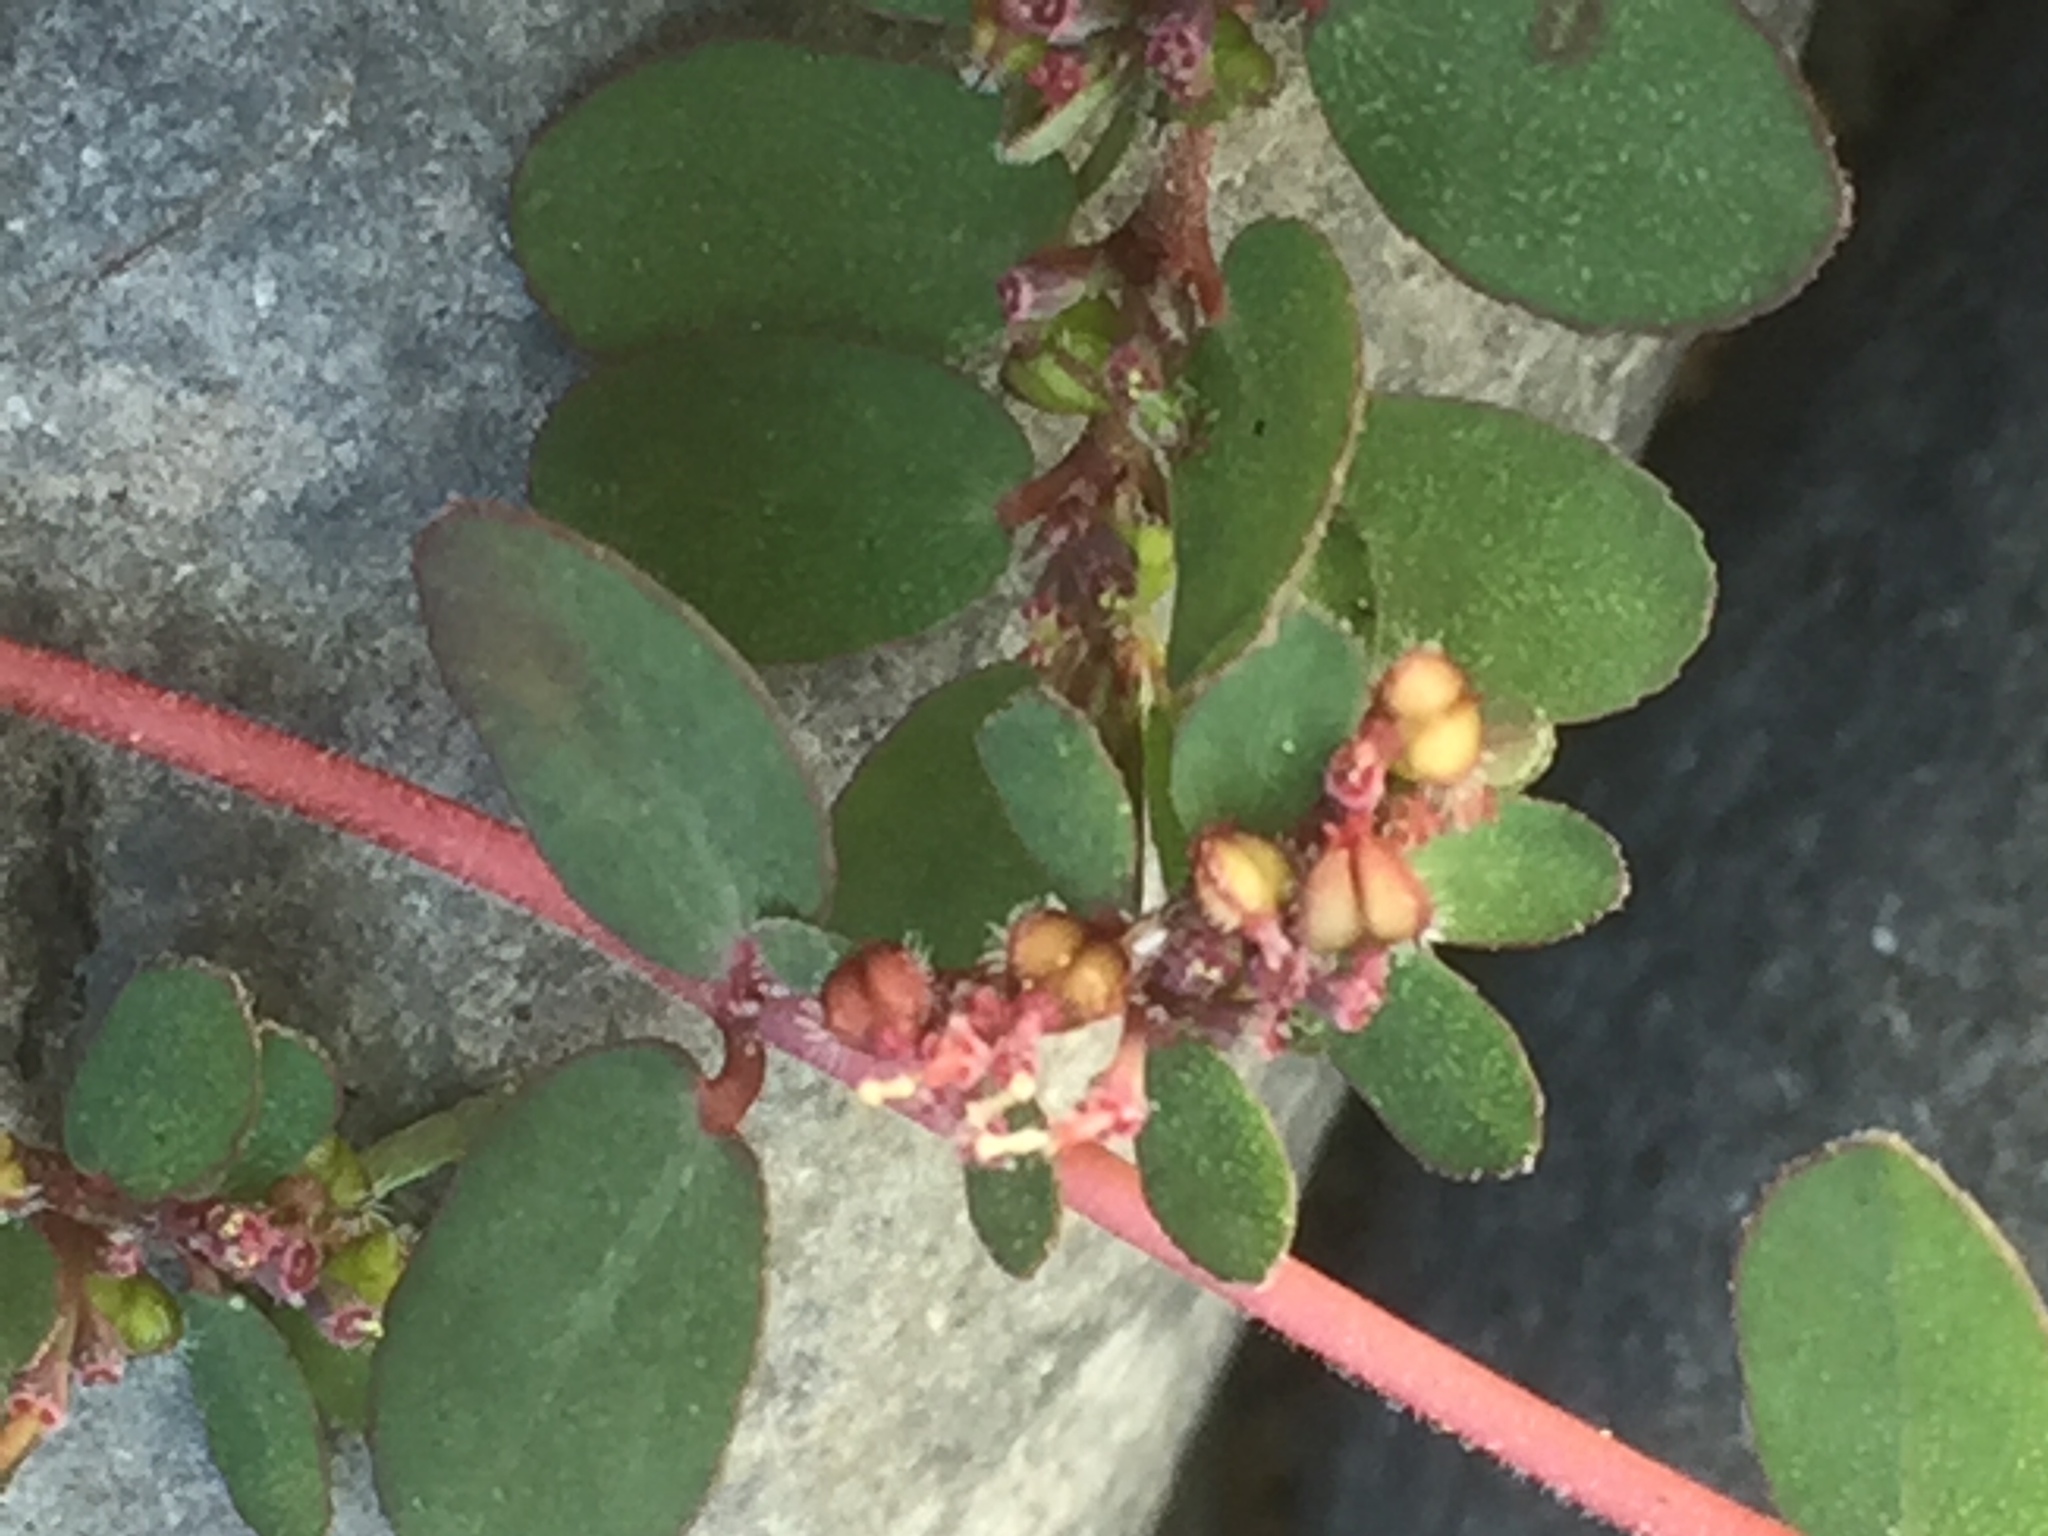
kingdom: Plantae
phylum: Tracheophyta
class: Magnoliopsida
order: Malpighiales
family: Euphorbiaceae
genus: Euphorbia
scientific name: Euphorbia prostrata
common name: Prostrate sandmat
